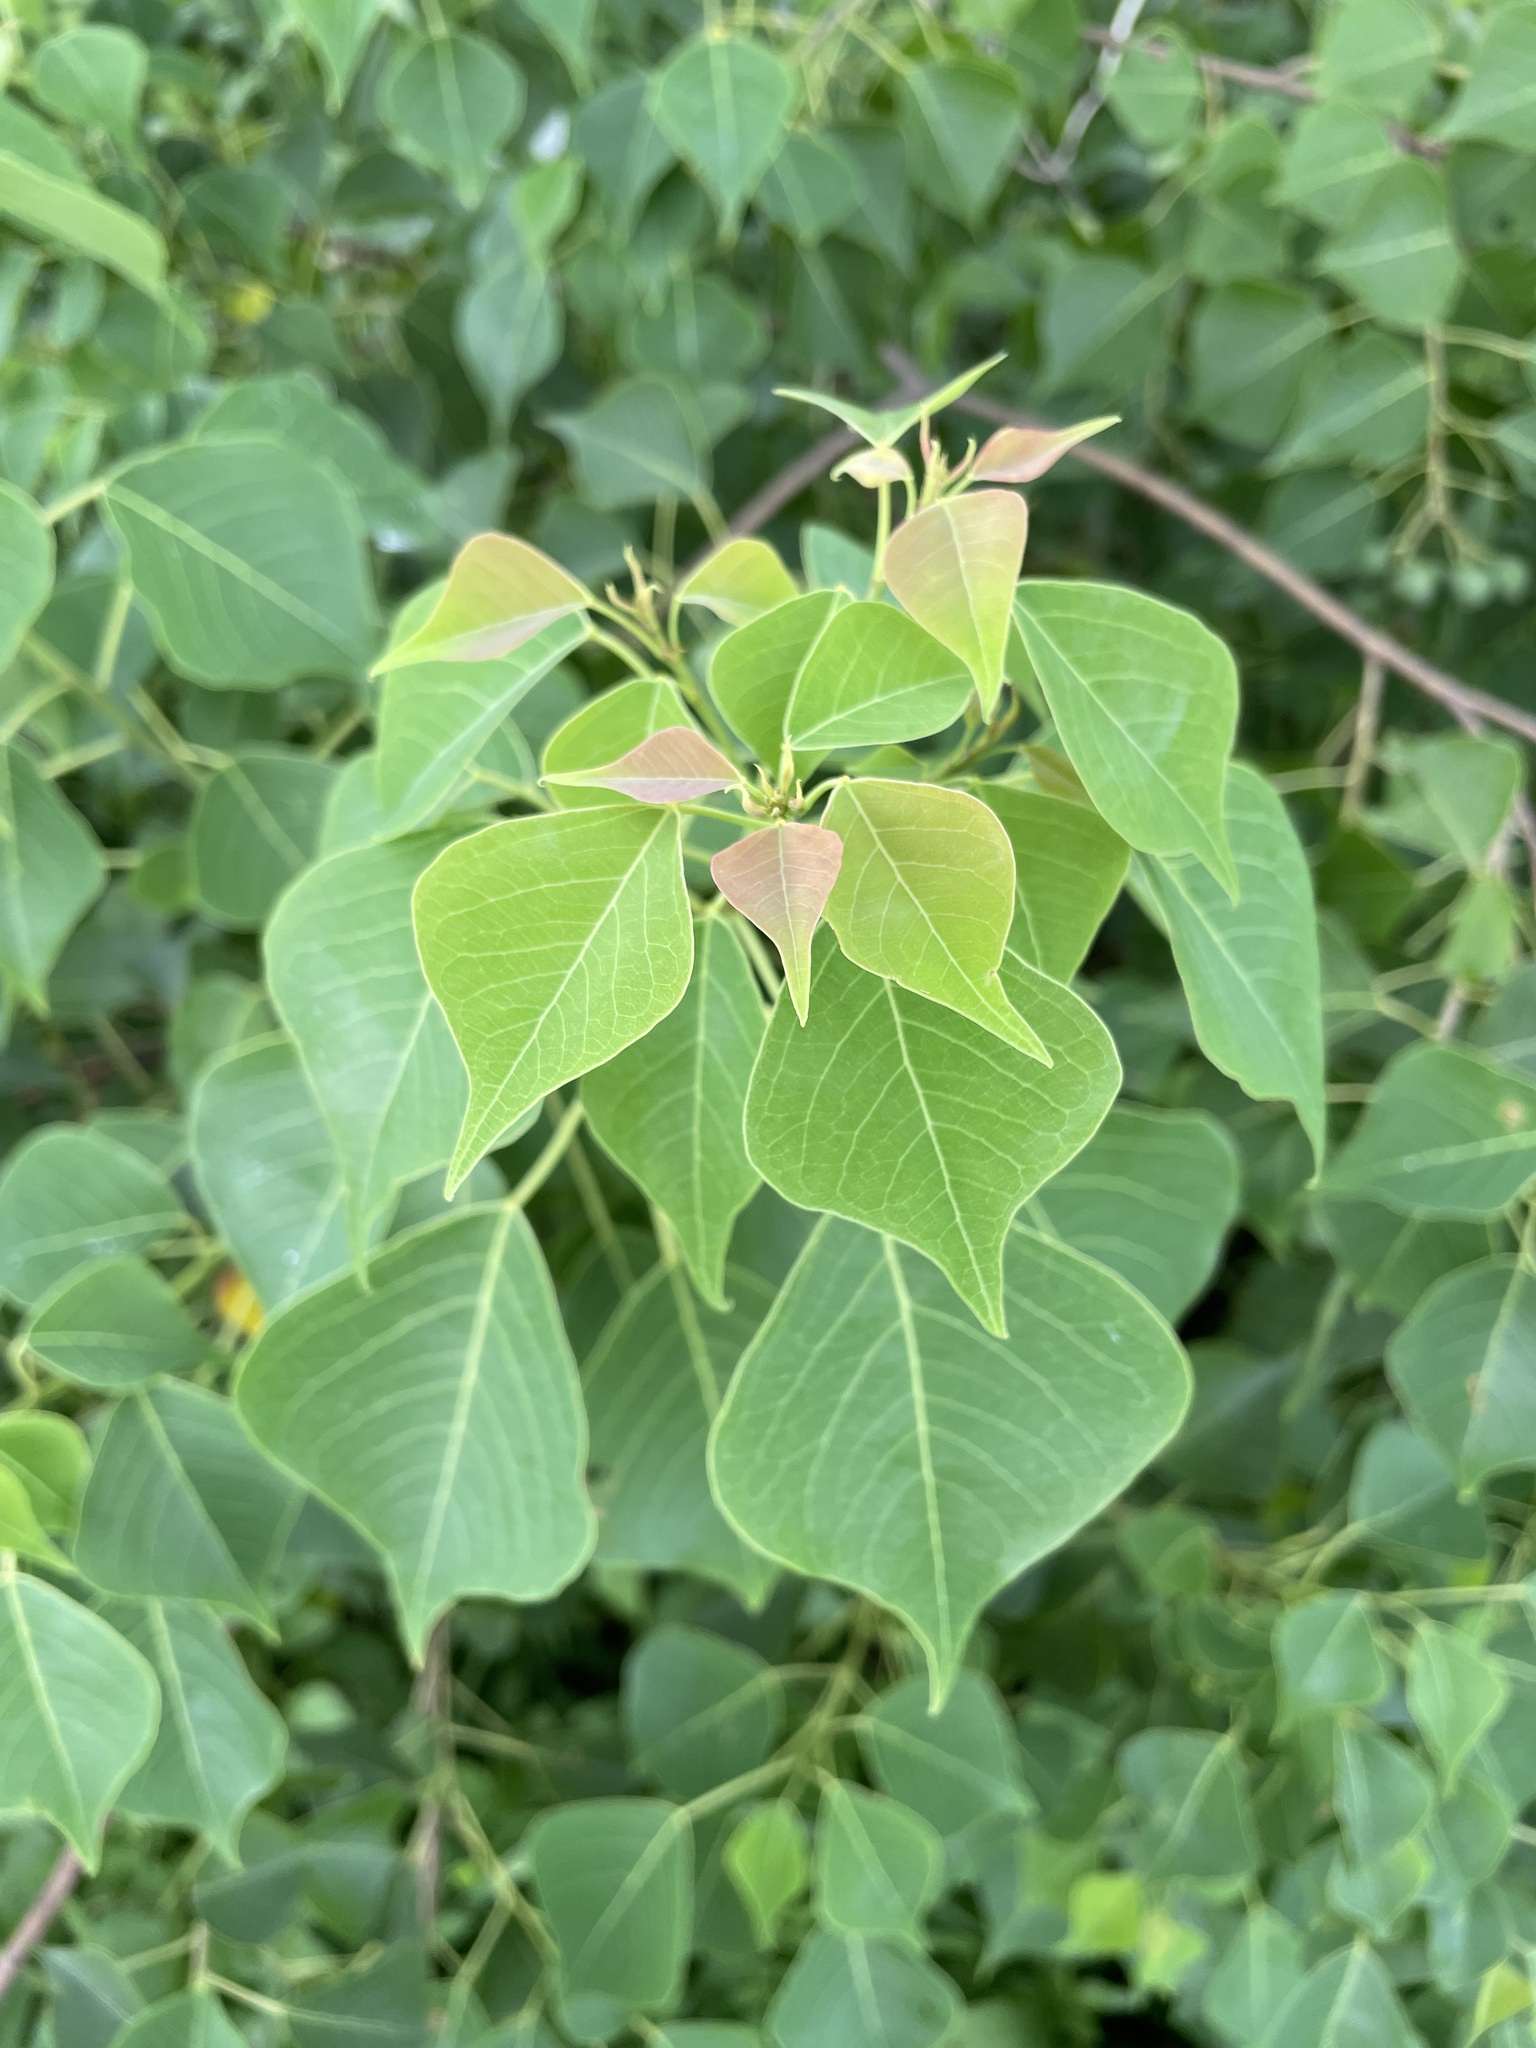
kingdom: Plantae
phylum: Tracheophyta
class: Magnoliopsida
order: Malpighiales
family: Euphorbiaceae
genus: Triadica
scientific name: Triadica sebifera
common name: Chinese tallow
